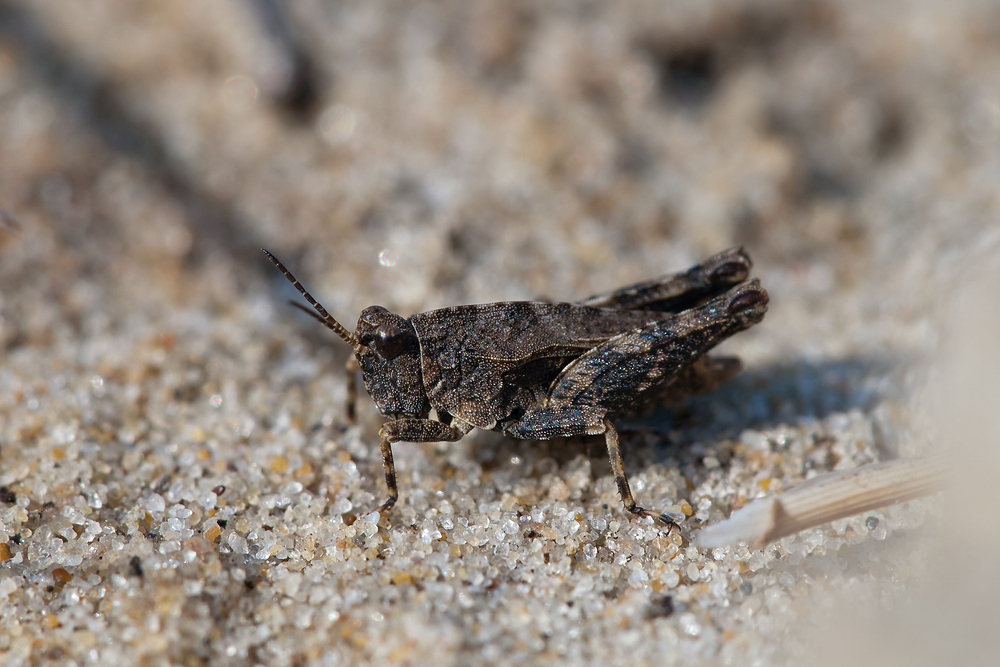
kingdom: Animalia
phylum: Arthropoda
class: Insecta
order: Orthoptera
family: Tetrigidae
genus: Tetrix
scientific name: Tetrix undulata
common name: Common groundhopper
